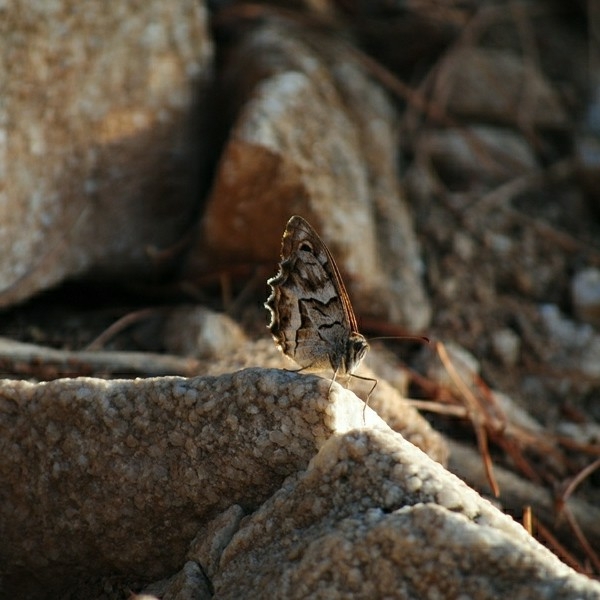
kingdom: Animalia
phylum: Arthropoda
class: Insecta
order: Lepidoptera
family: Nymphalidae
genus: Hipparchia
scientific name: Hipparchia fidia
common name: Striped grayling
